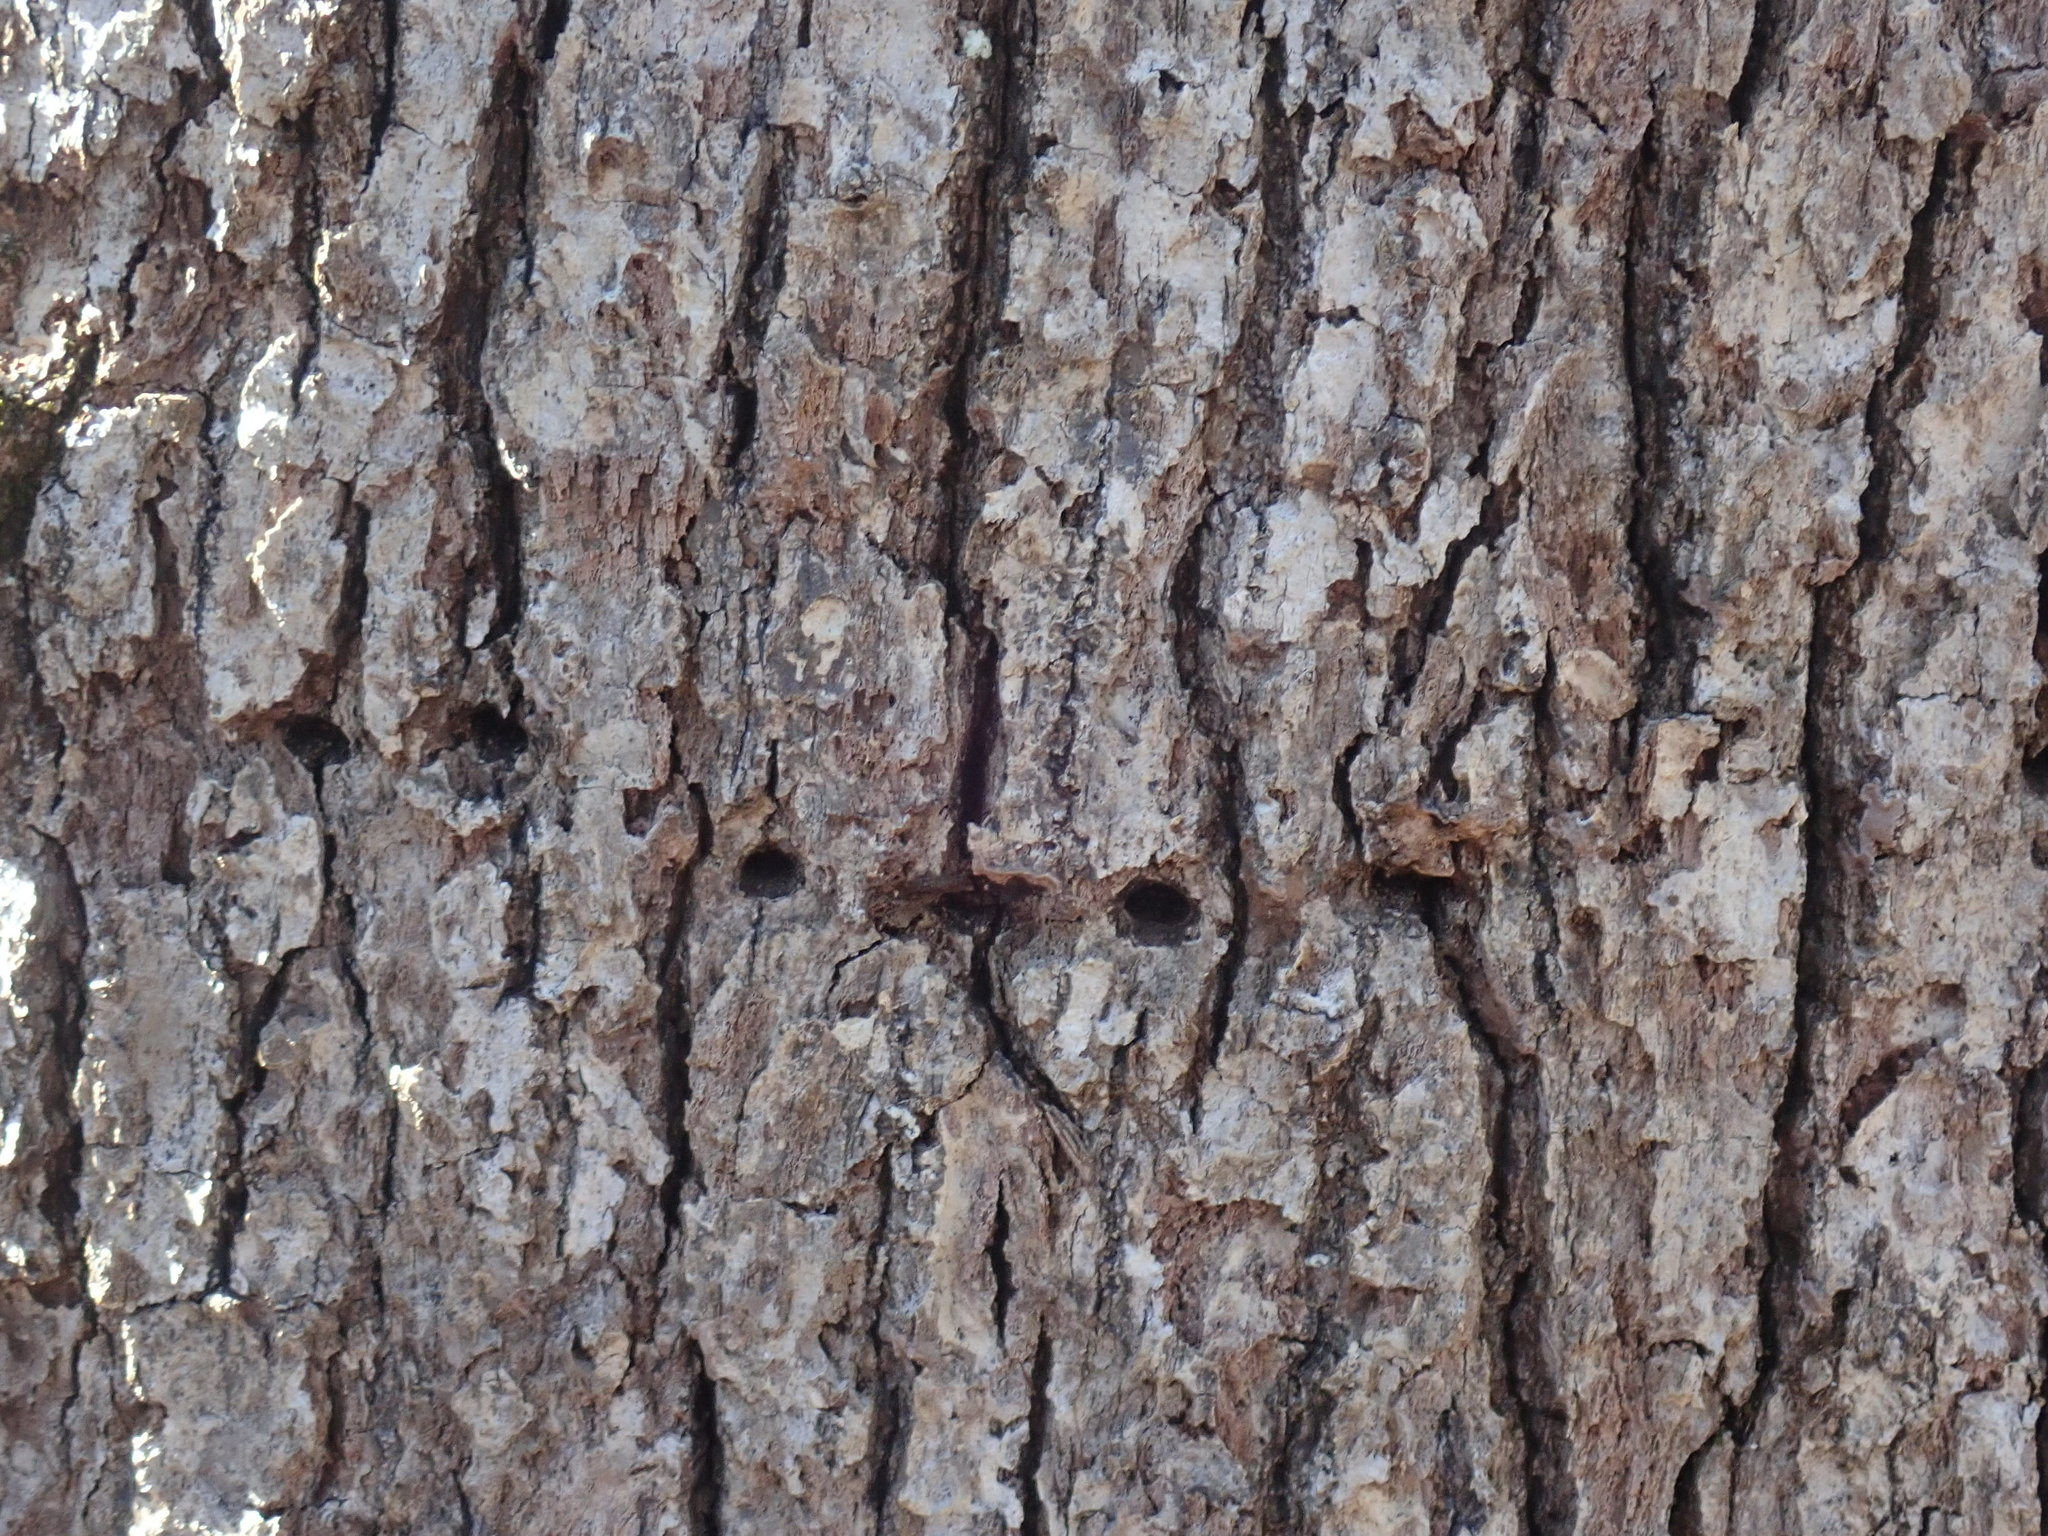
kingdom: Animalia
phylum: Chordata
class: Aves
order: Piciformes
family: Picidae
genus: Sphyrapicus
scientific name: Sphyrapicus varius
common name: Yellow-bellied sapsucker
